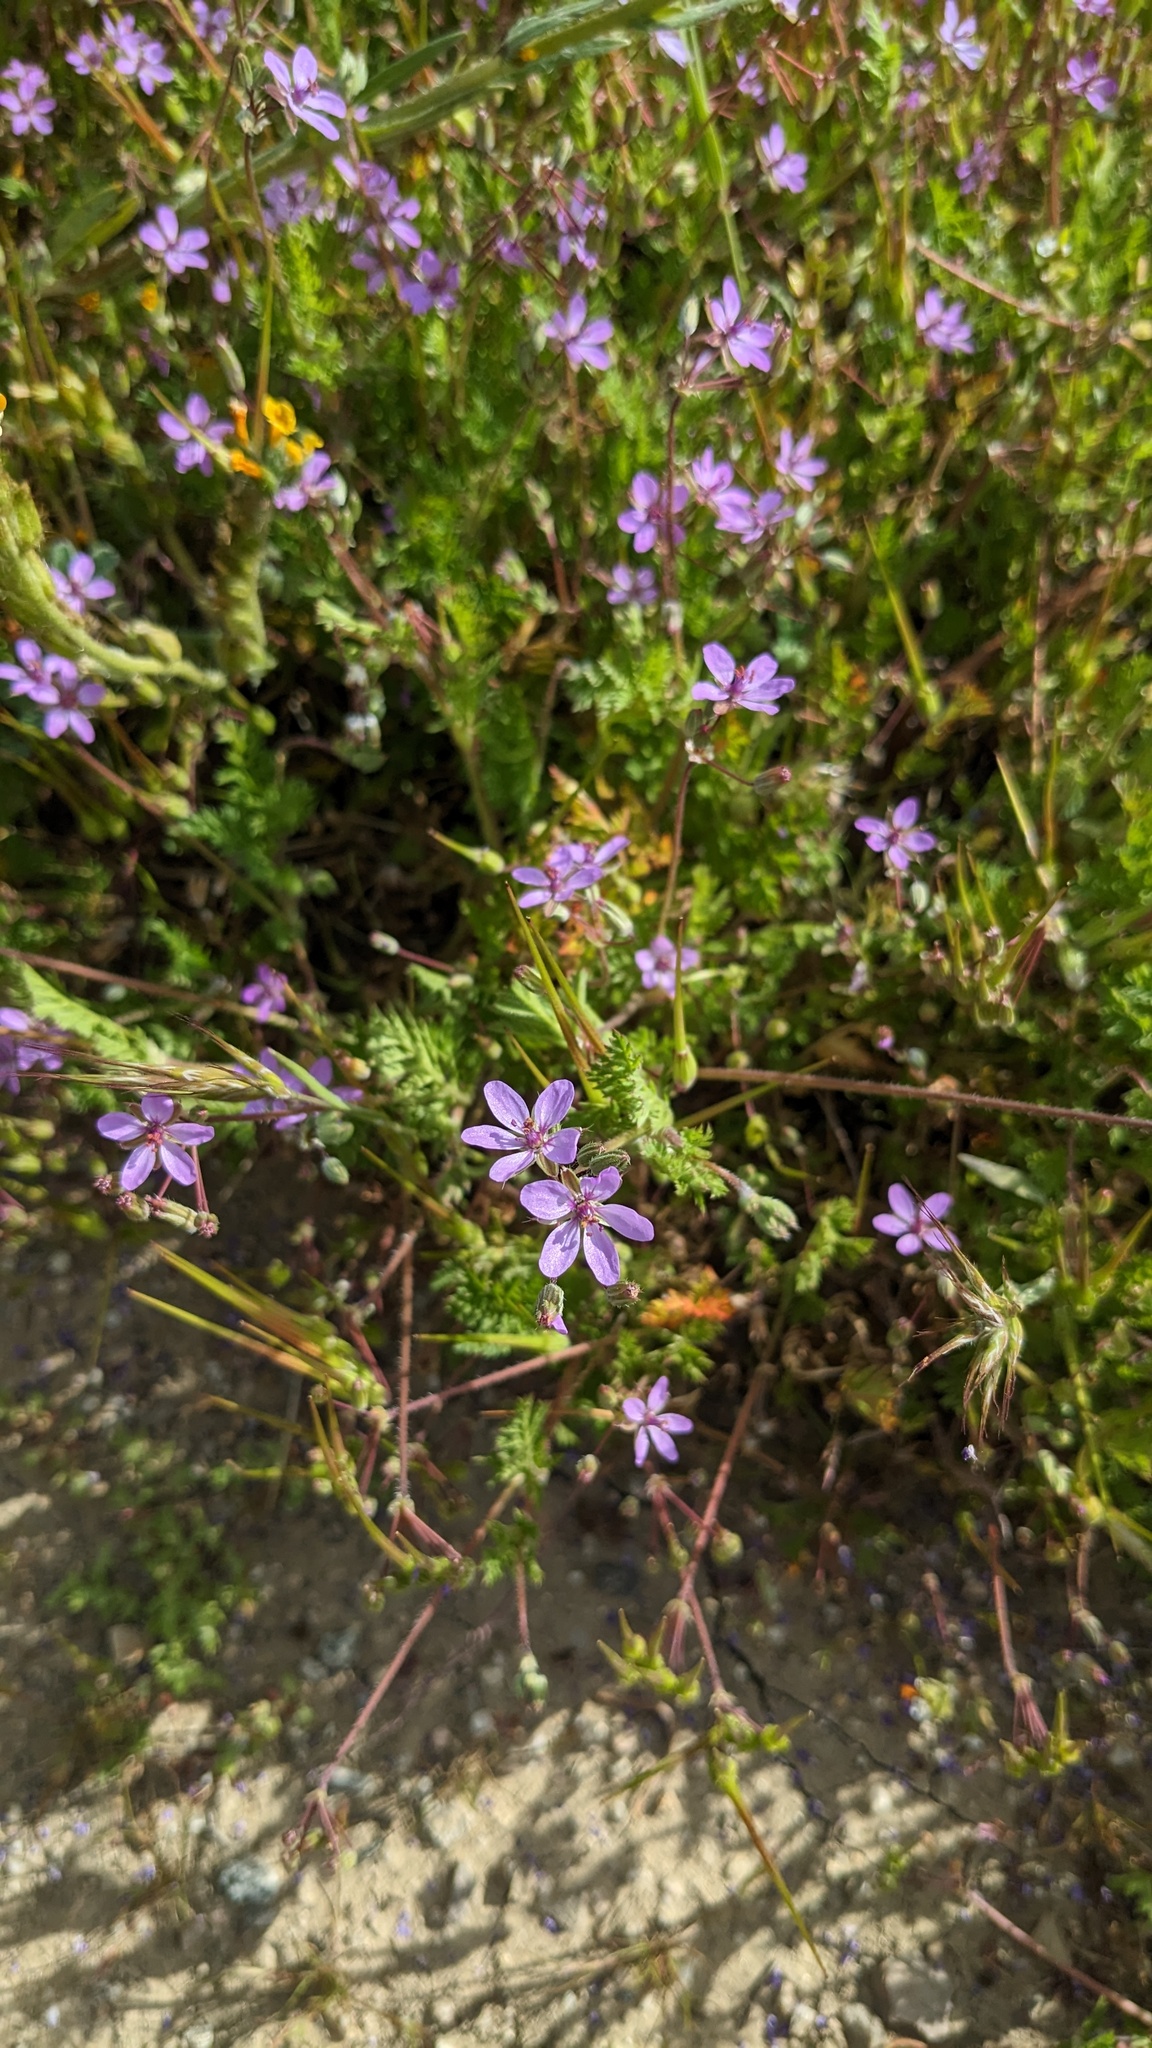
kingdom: Plantae
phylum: Tracheophyta
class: Magnoliopsida
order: Geraniales
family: Geraniaceae
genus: Erodium
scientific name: Erodium cicutarium
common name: Common stork's-bill
